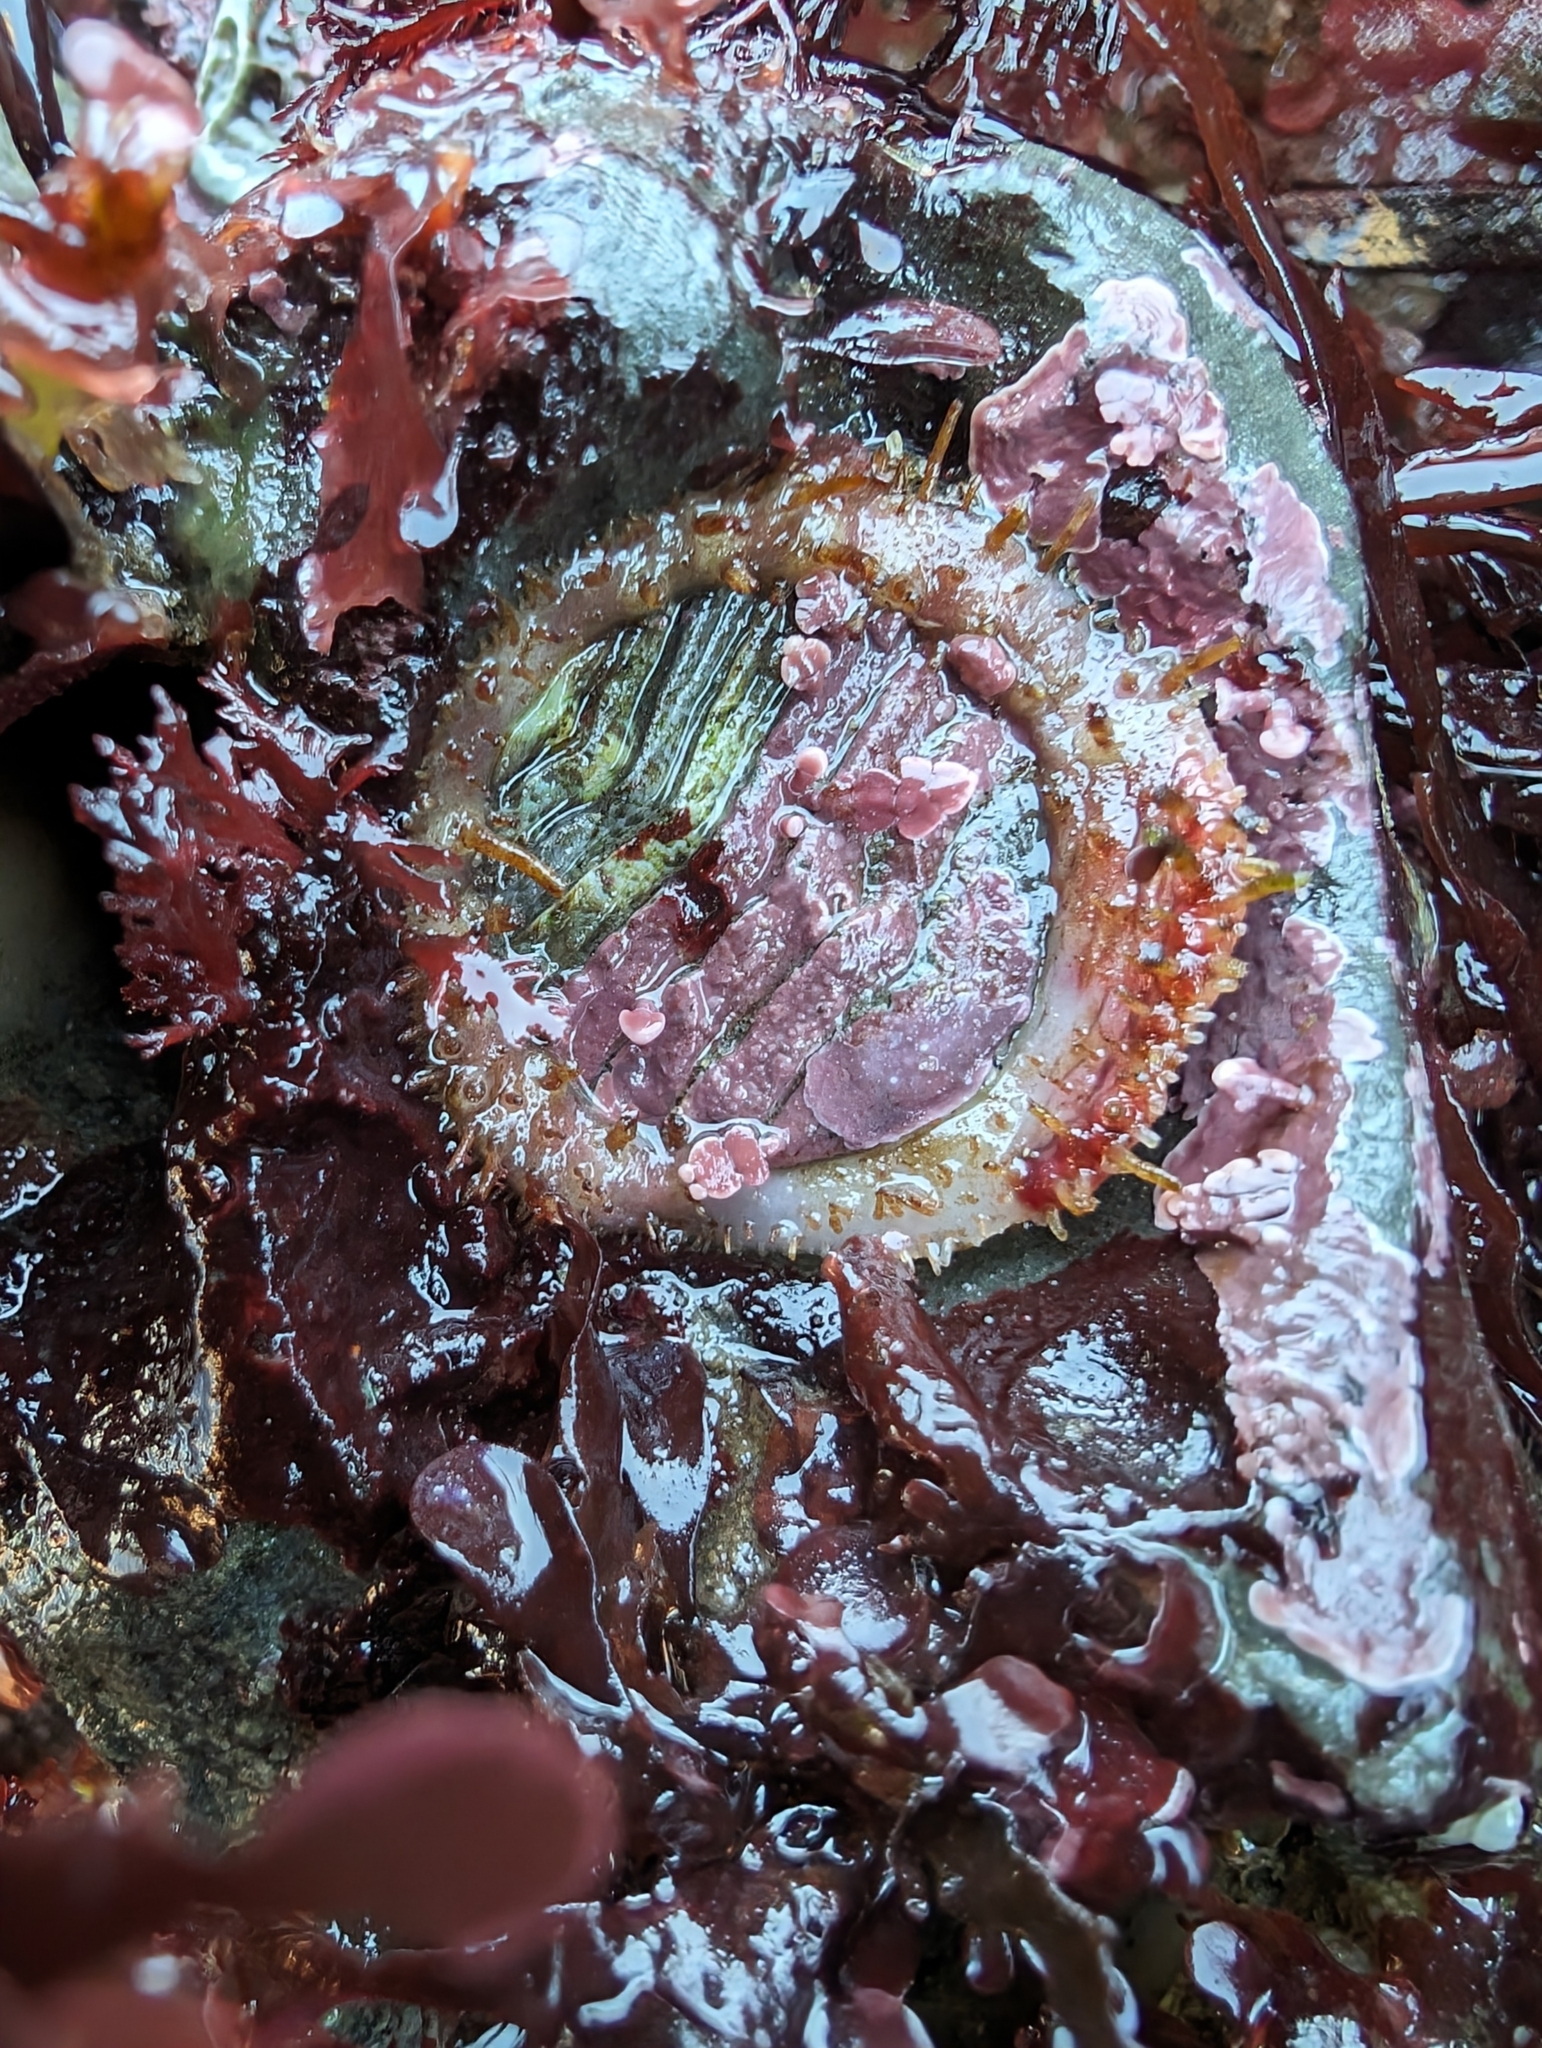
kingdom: Animalia
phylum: Mollusca
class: Polyplacophora
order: Chitonida
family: Mopaliidae
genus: Placiphorella
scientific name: Placiphorella velata
